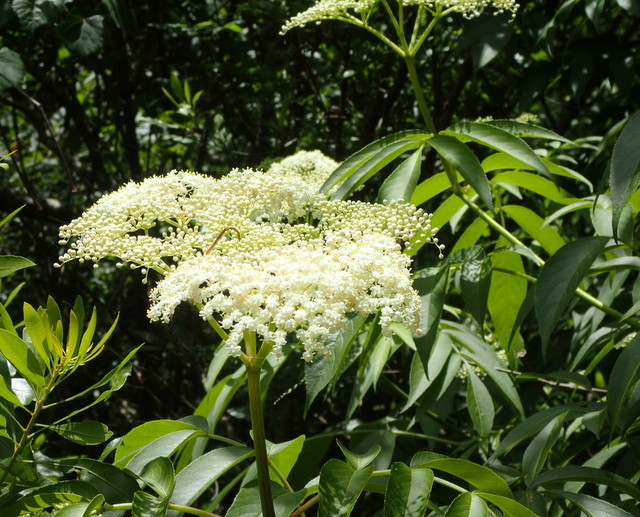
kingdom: Plantae
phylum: Tracheophyta
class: Magnoliopsida
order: Dipsacales
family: Viburnaceae
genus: Sambucus
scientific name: Sambucus canadensis
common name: American elder
